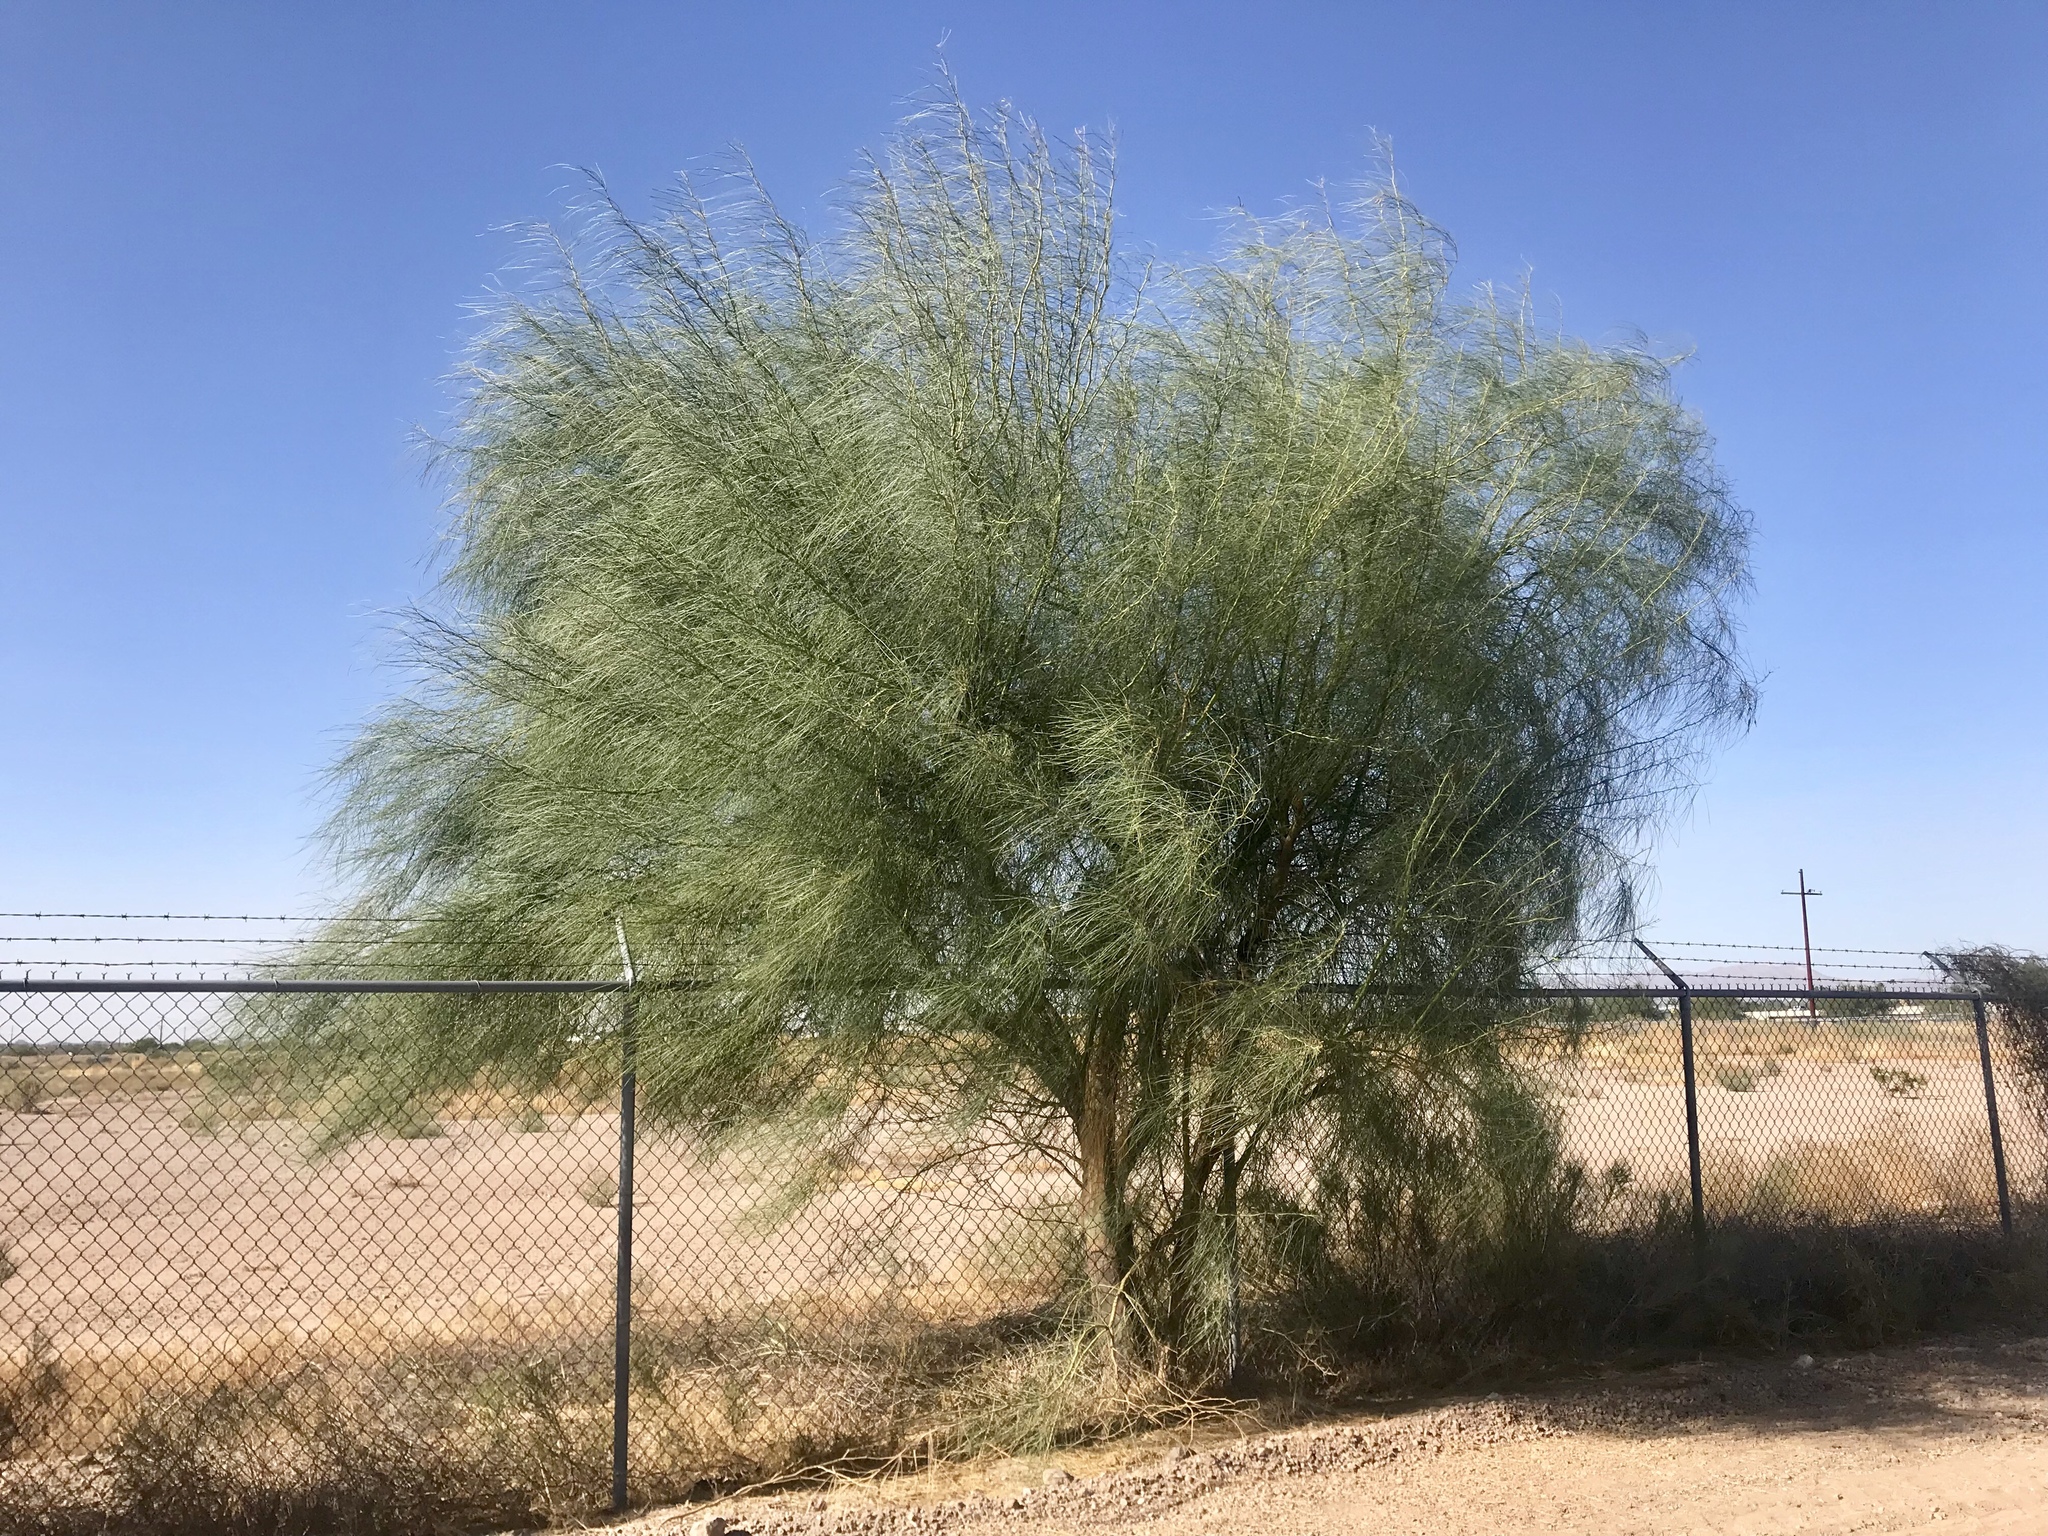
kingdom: Plantae
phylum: Tracheophyta
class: Magnoliopsida
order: Fabales
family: Fabaceae
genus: Parkinsonia
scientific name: Parkinsonia aculeata
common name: Jerusalem thorn
